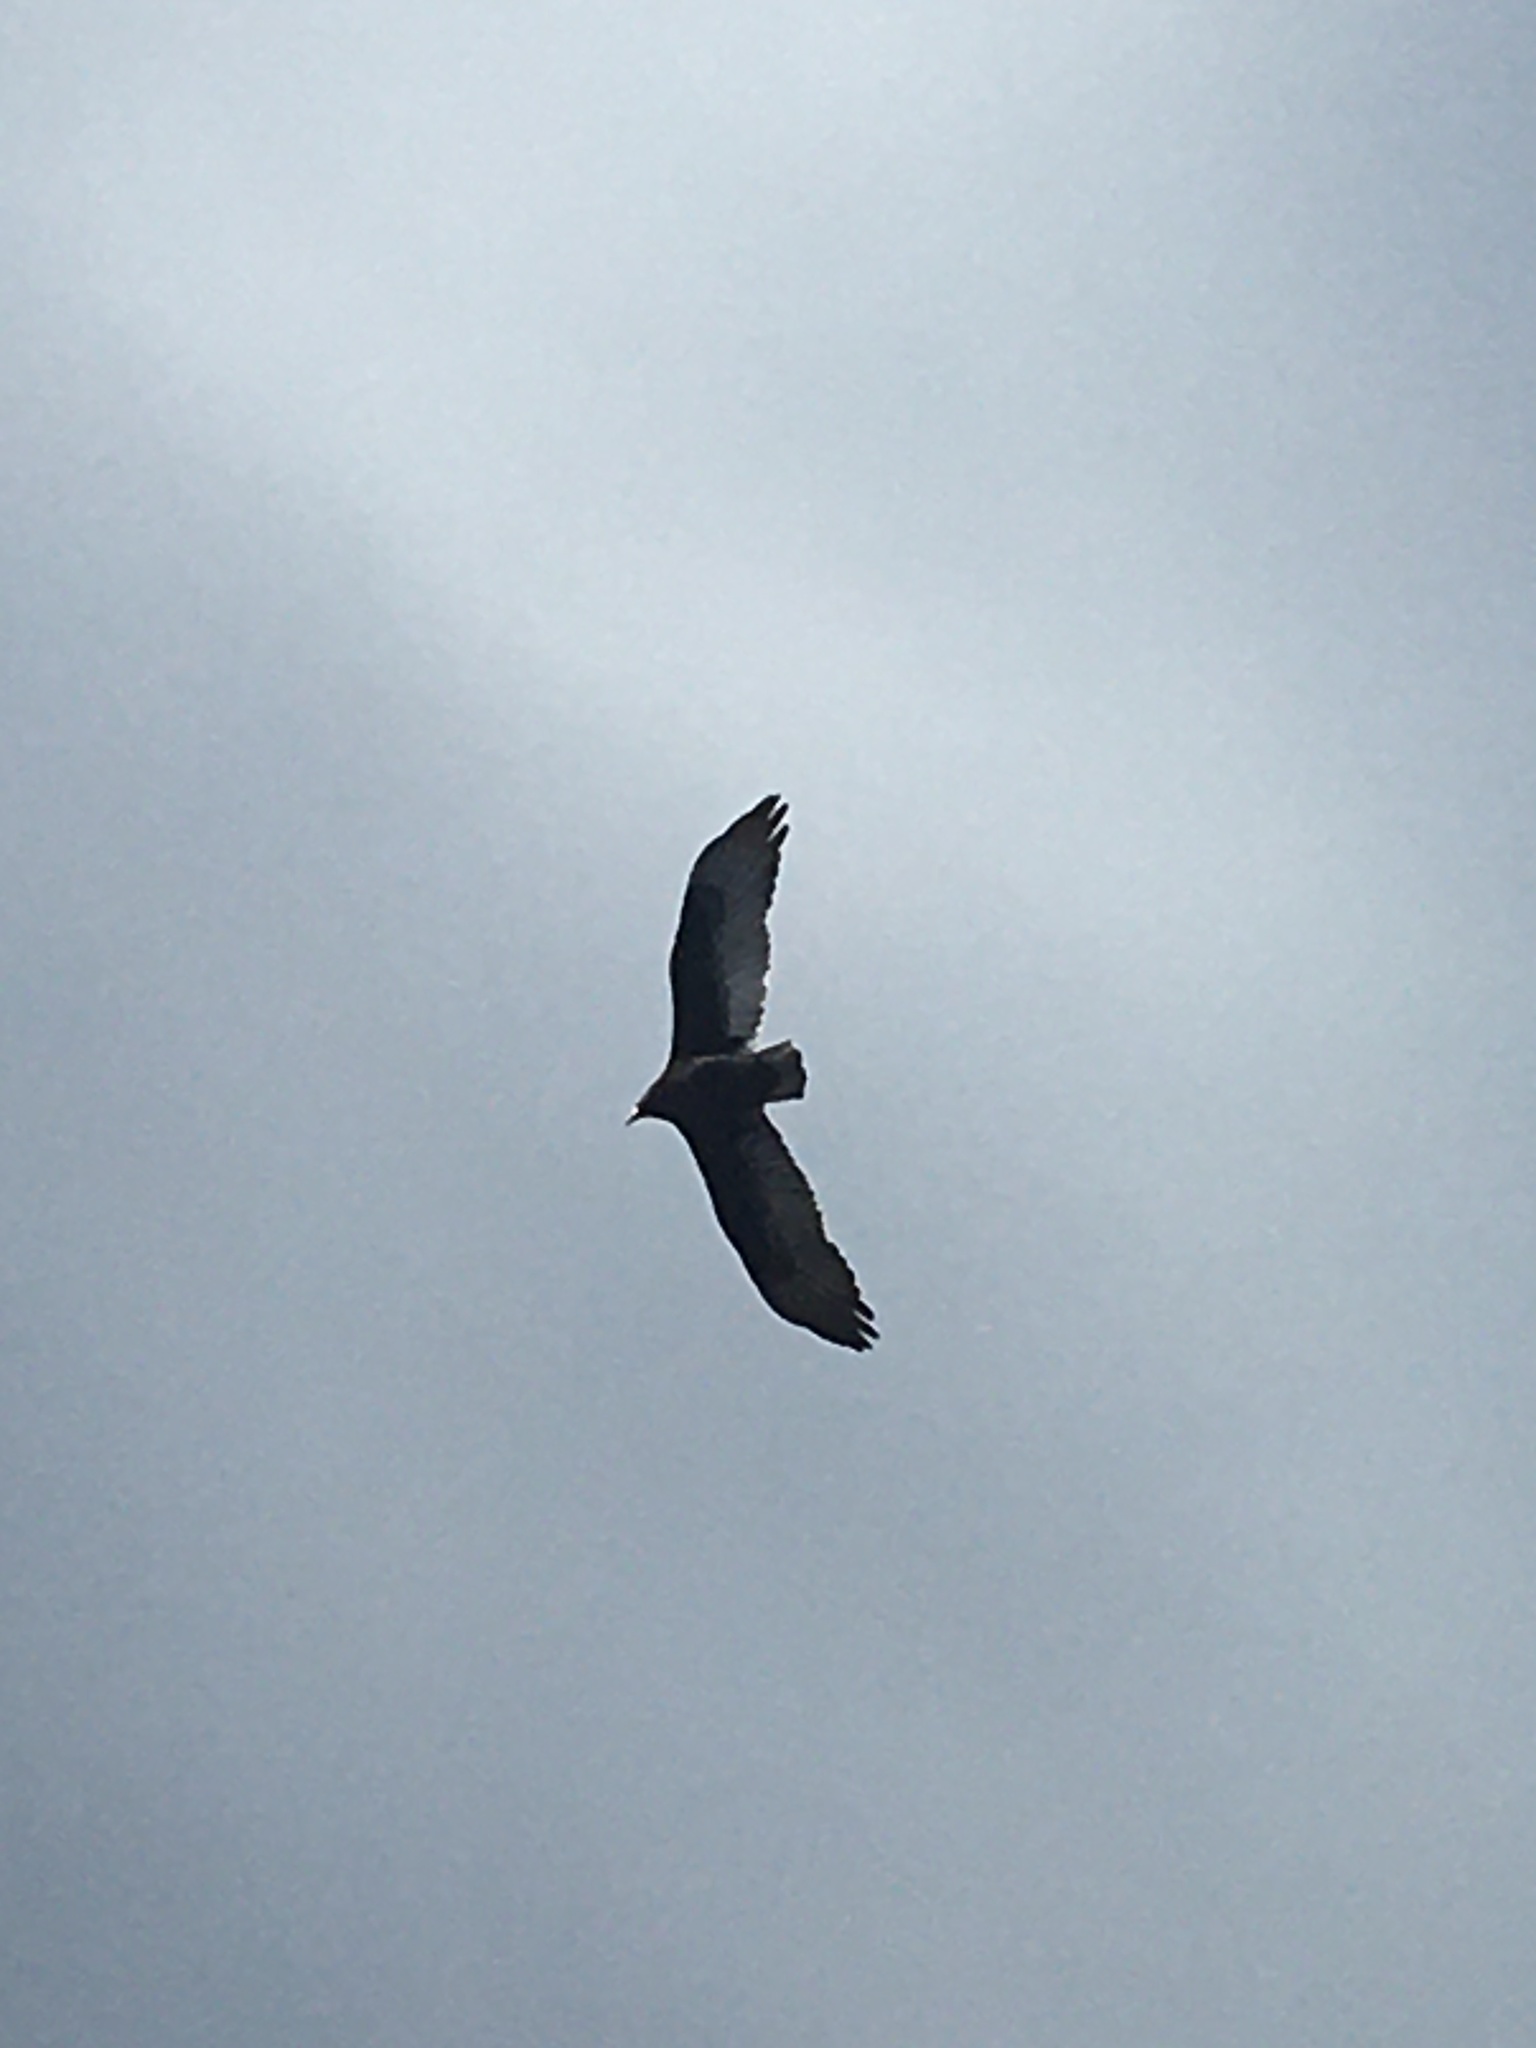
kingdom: Animalia
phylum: Chordata
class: Aves
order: Accipitriformes
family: Cathartidae
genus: Cathartes
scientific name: Cathartes aura
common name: Turkey vulture
